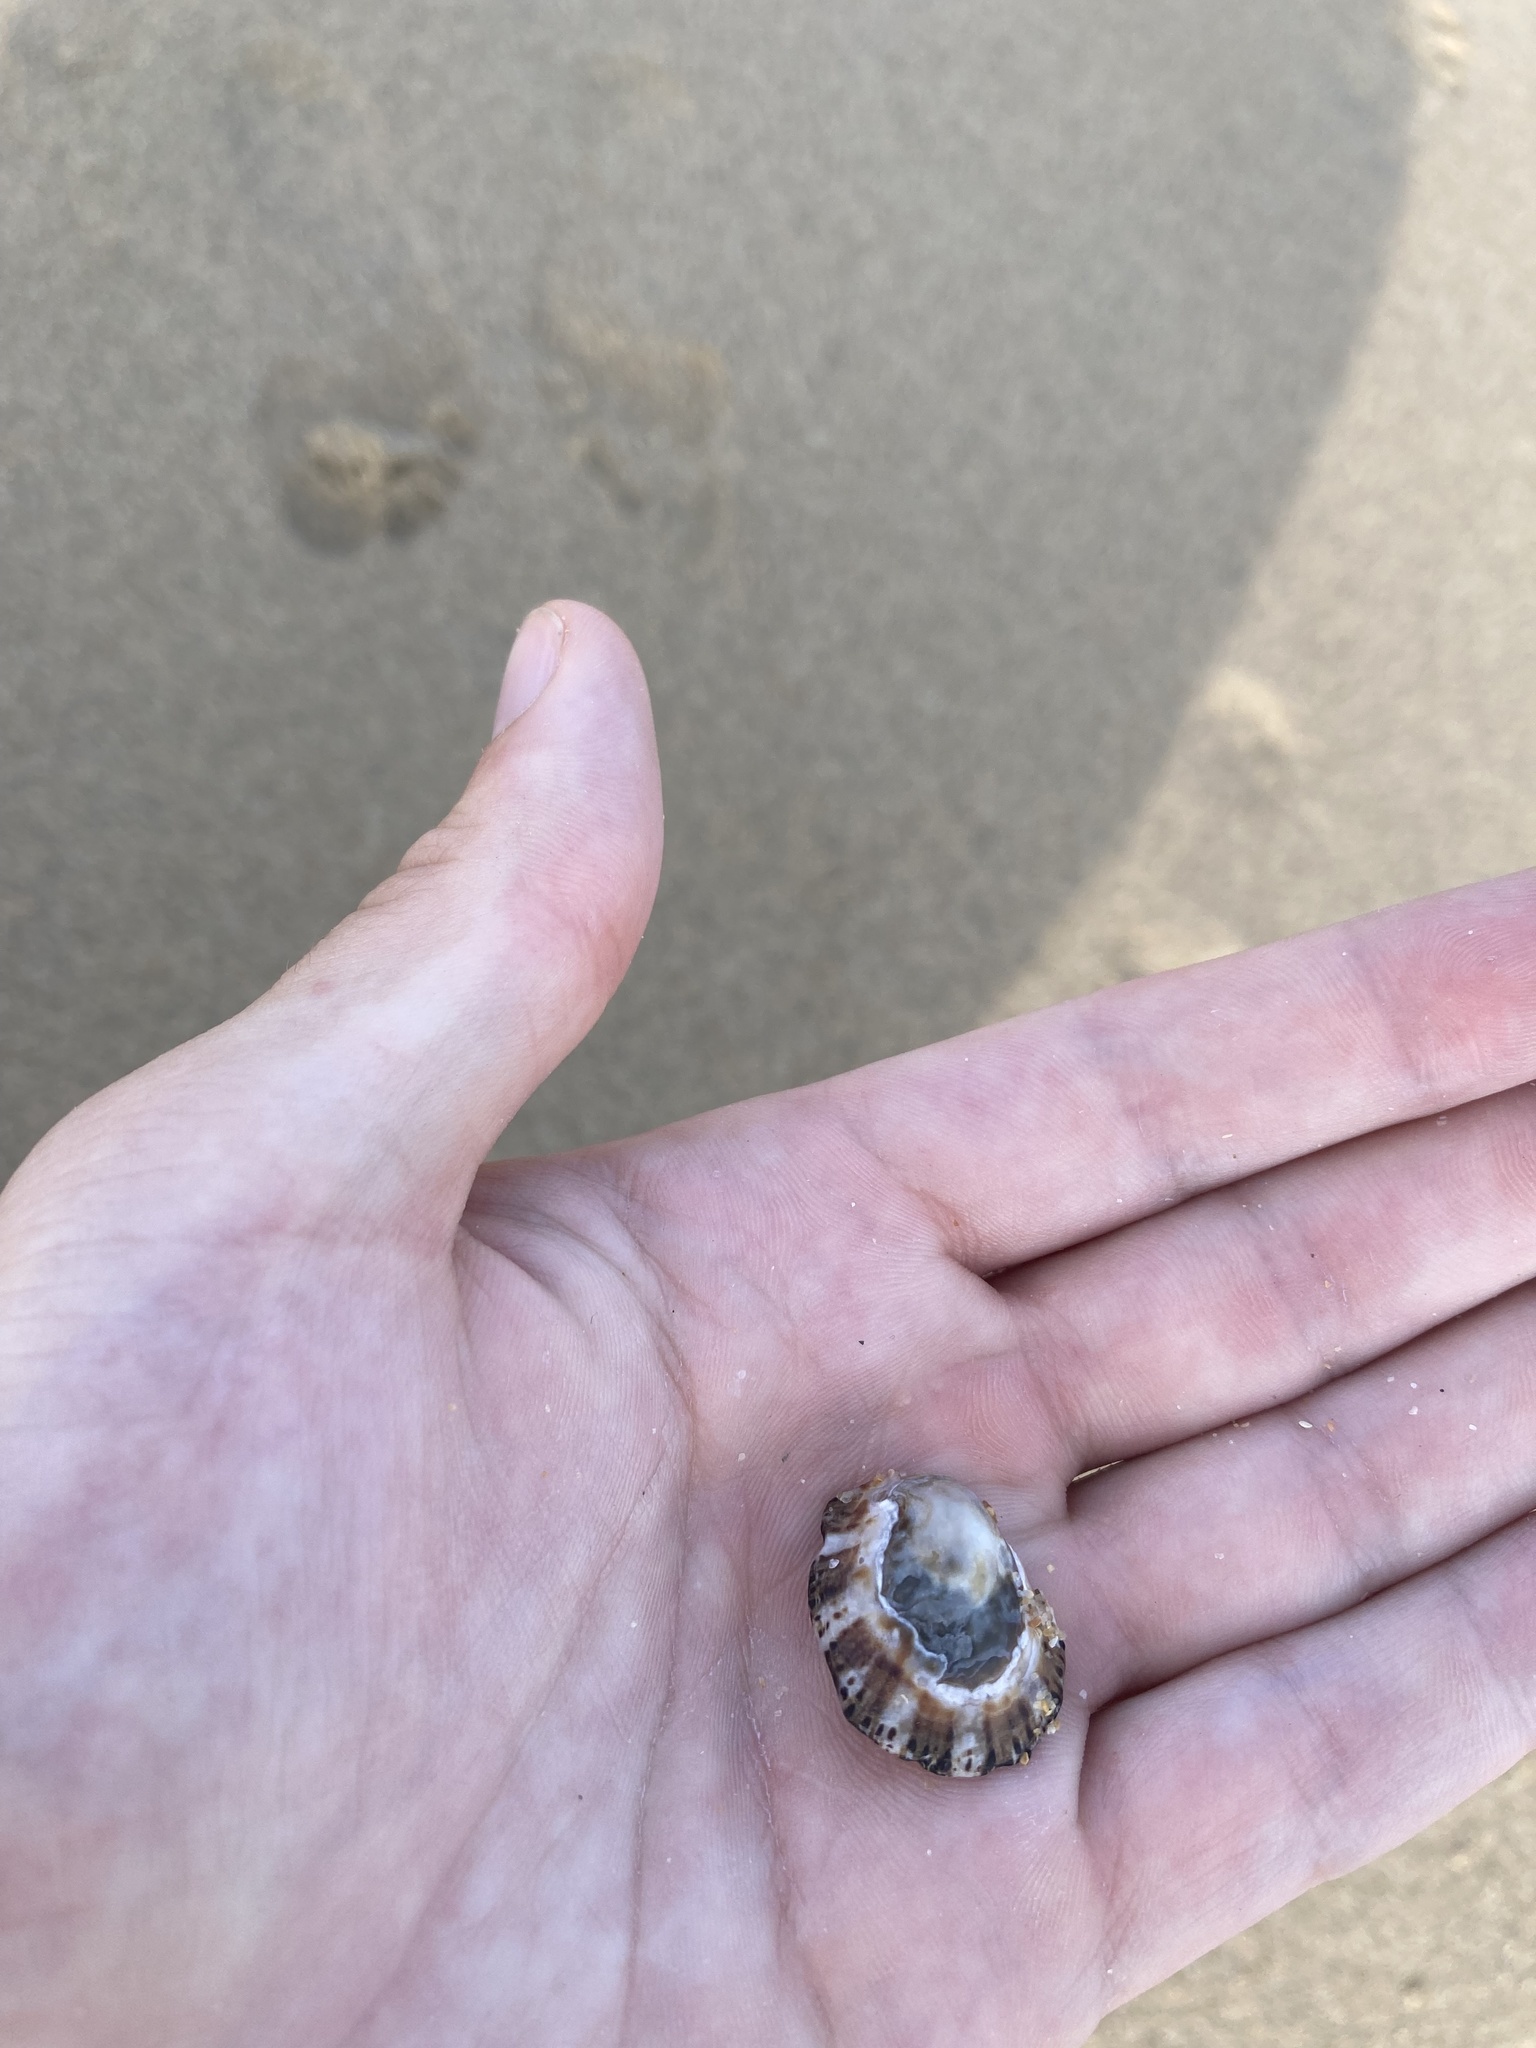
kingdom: Animalia
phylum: Mollusca
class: Gastropoda
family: Patellidae
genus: Patella
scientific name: Patella vulgata
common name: Common limpet
